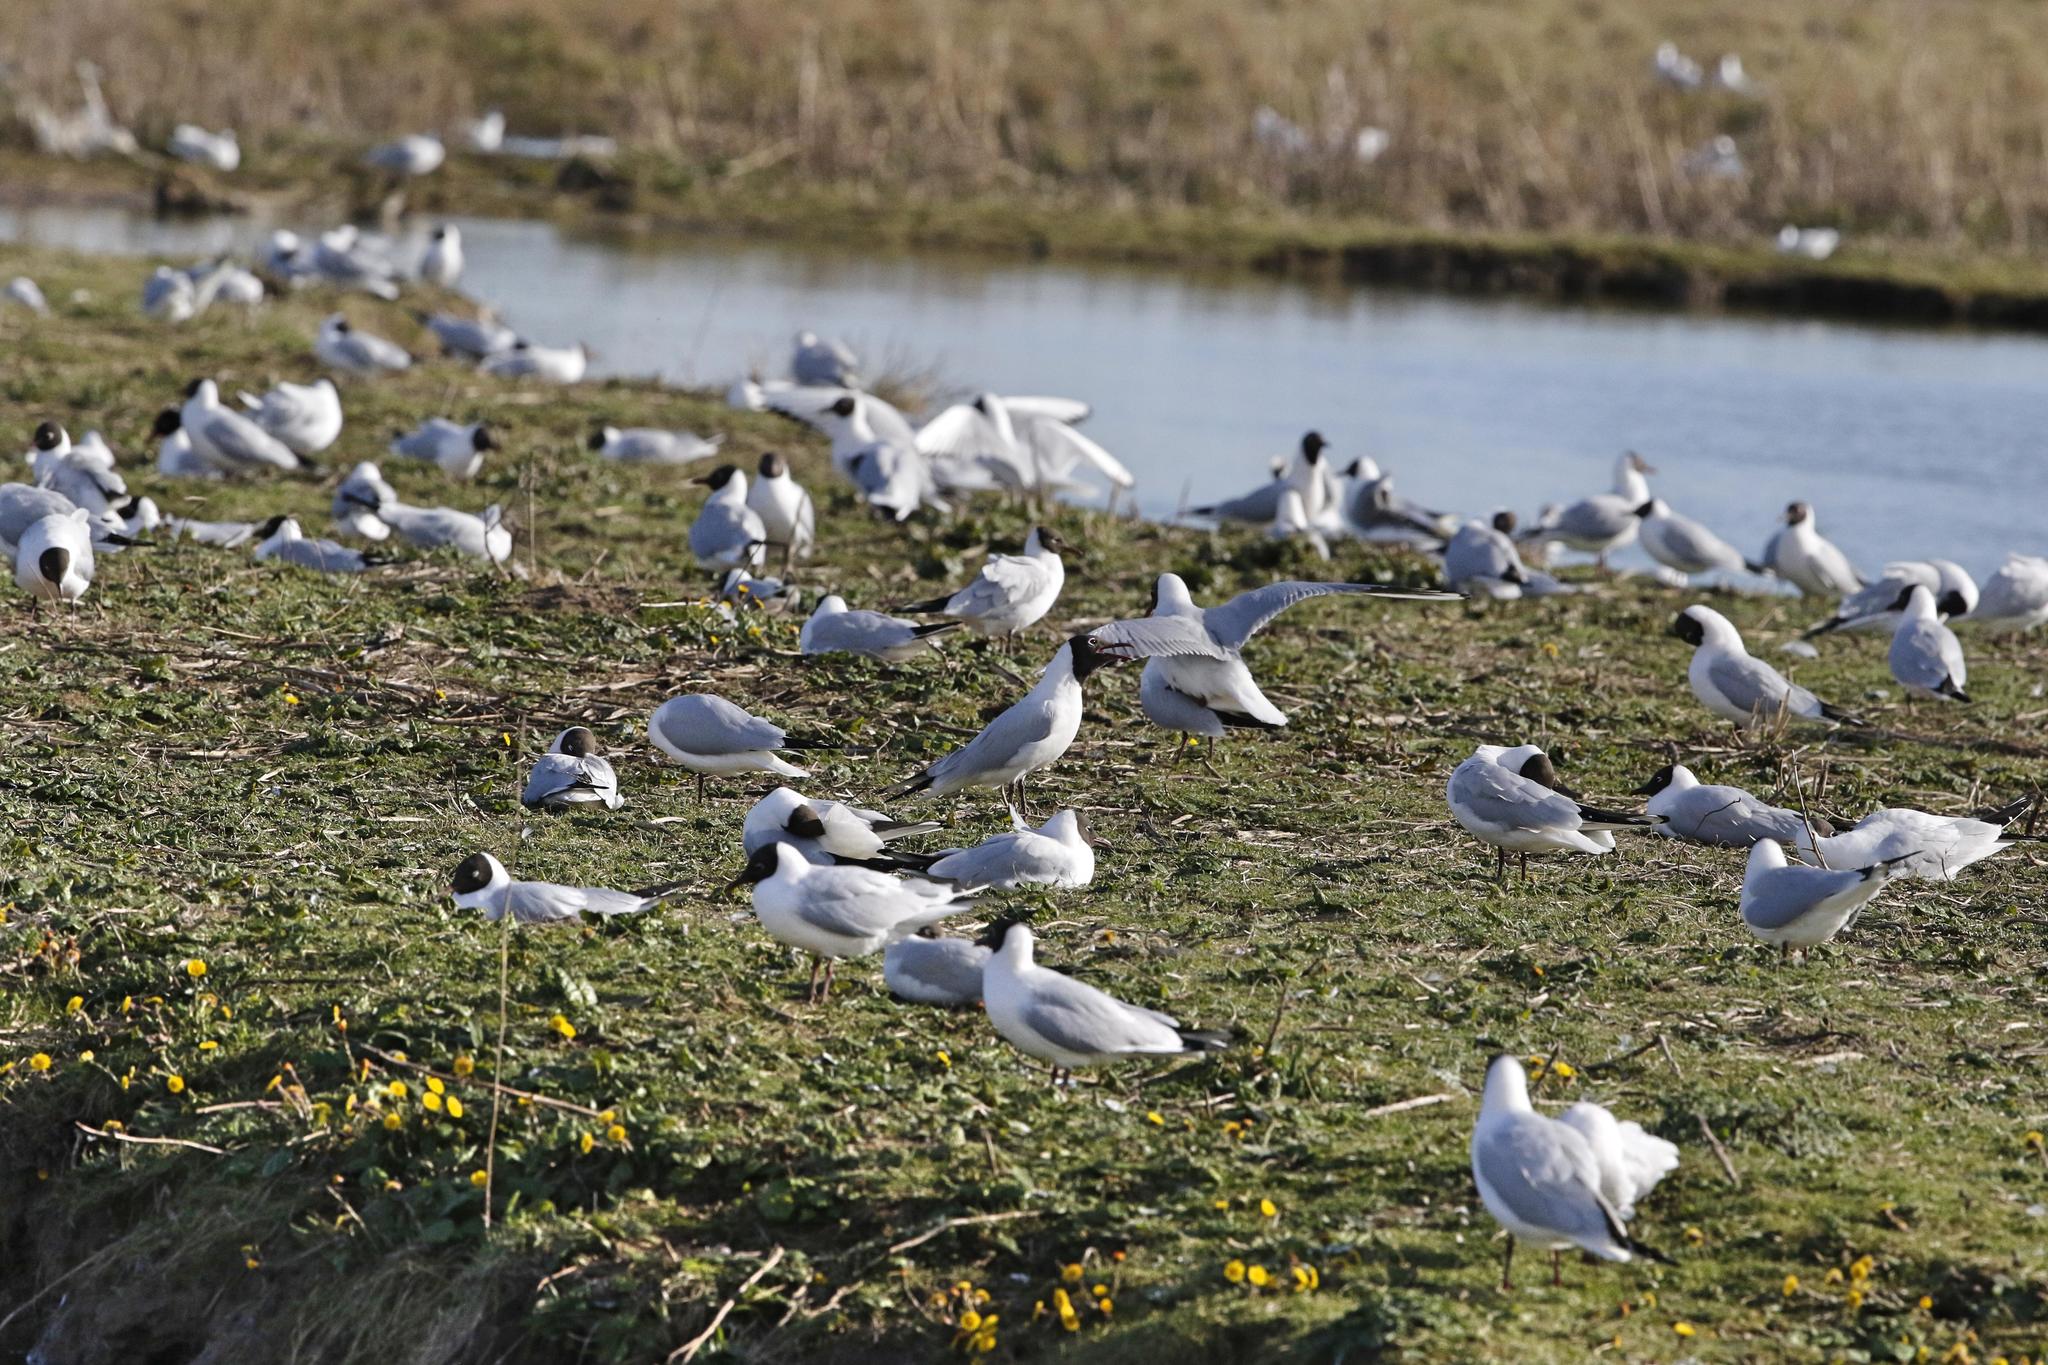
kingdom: Animalia
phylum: Chordata
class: Aves
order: Charadriiformes
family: Laridae
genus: Chroicocephalus
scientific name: Chroicocephalus ridibundus
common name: Black-headed gull
